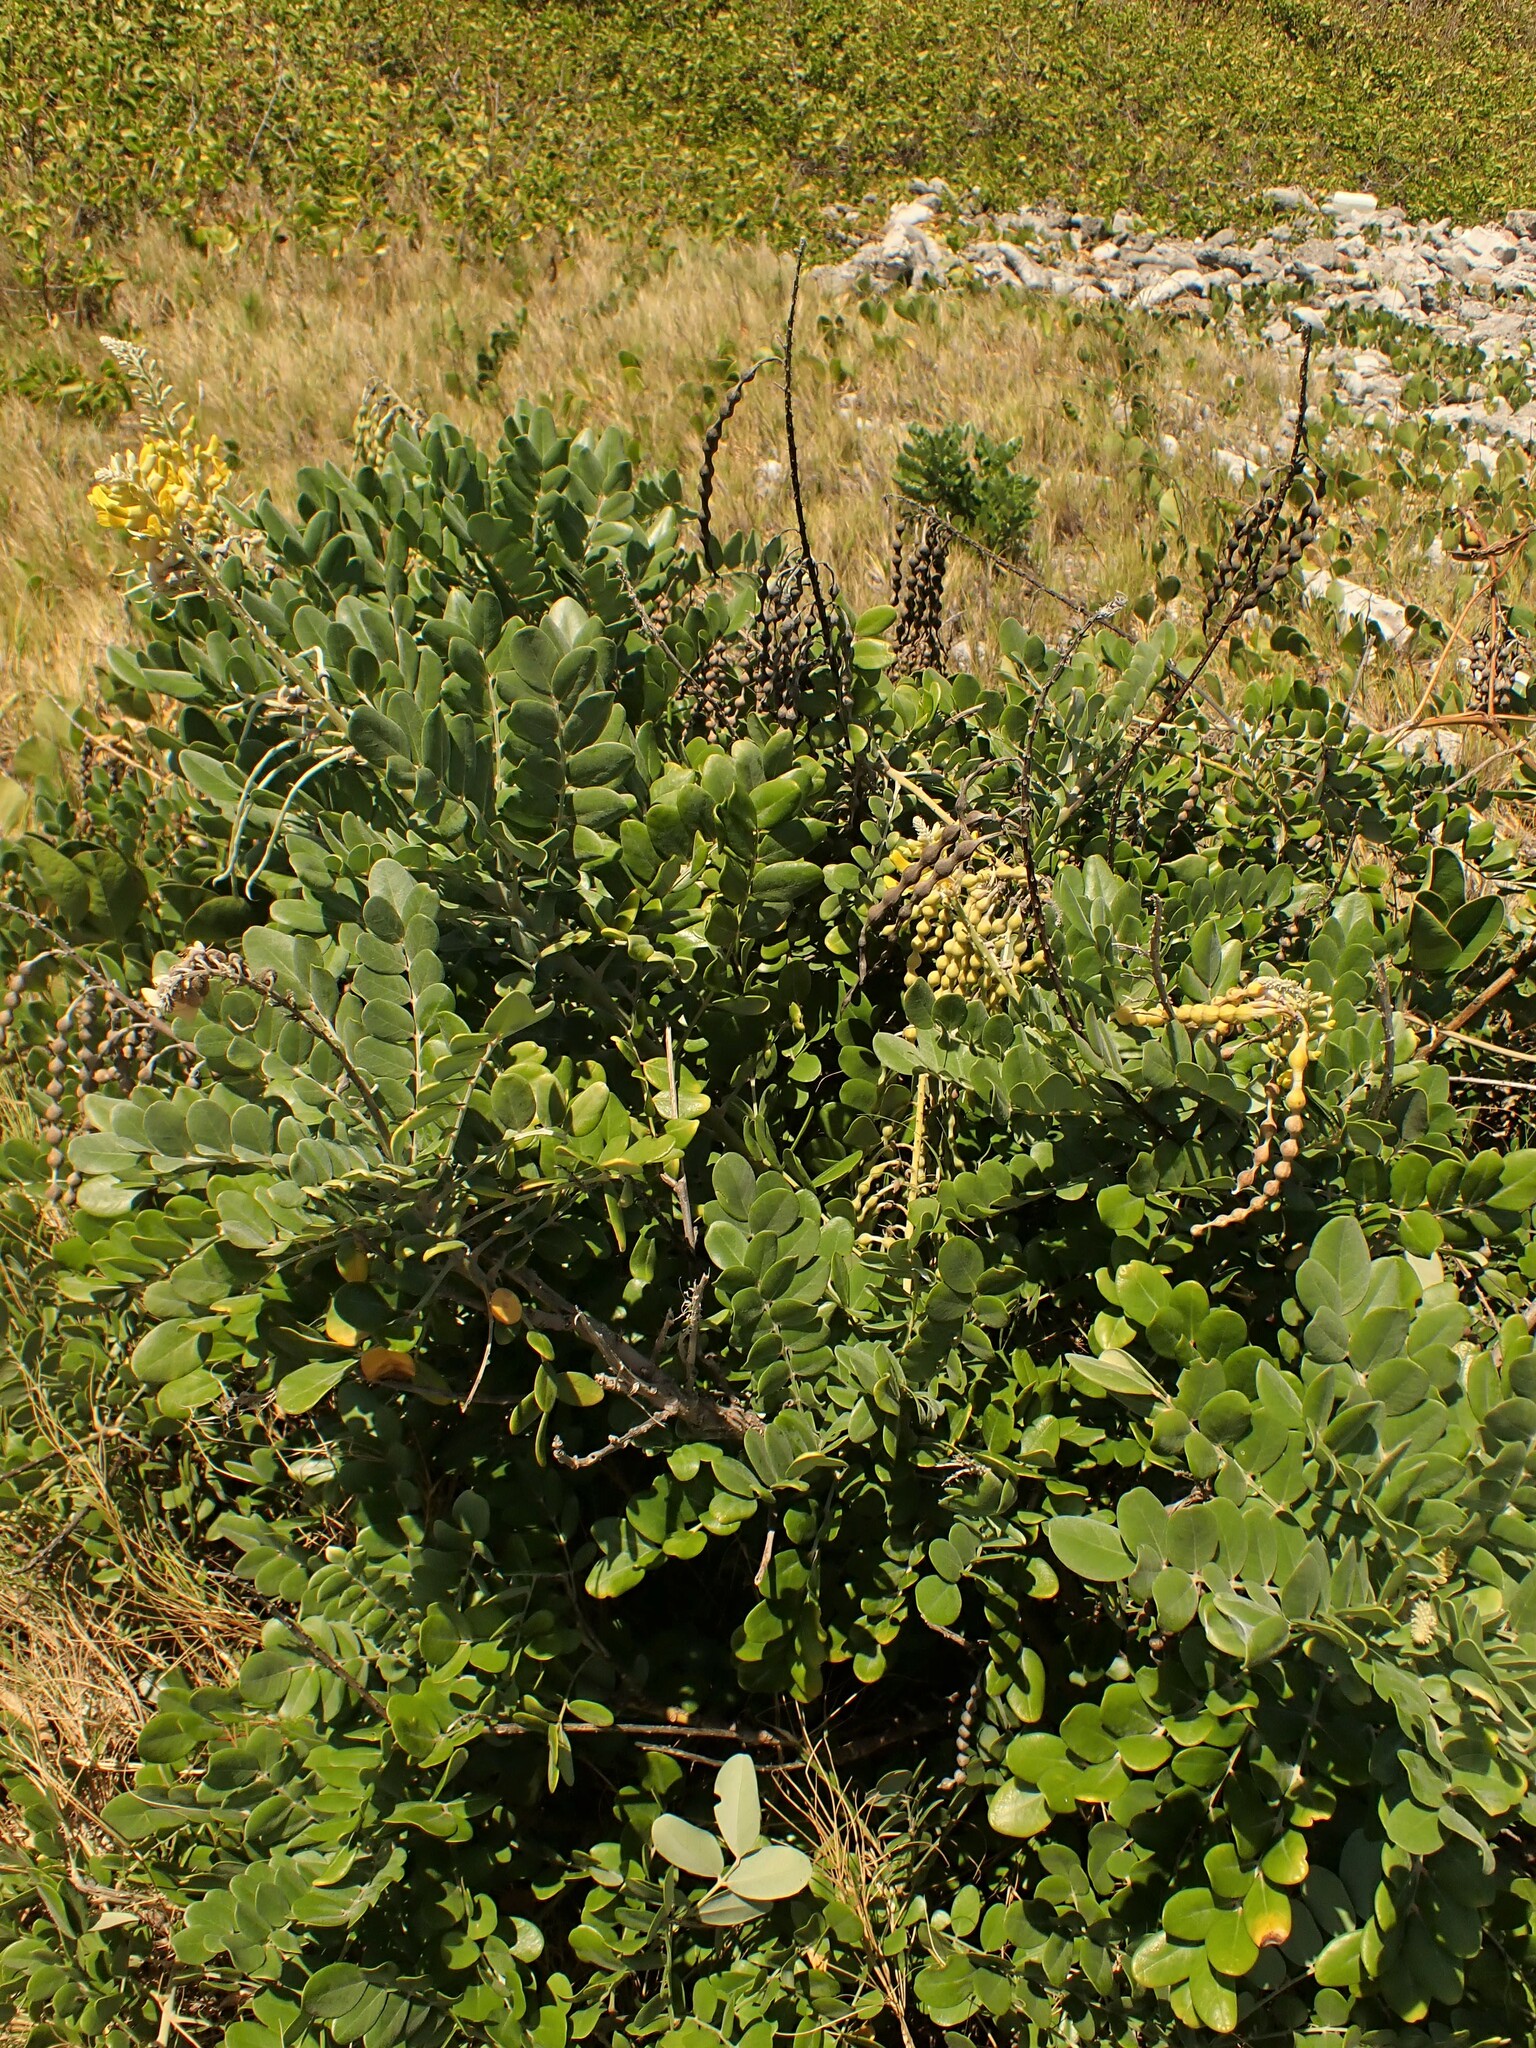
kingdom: Plantae
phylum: Tracheophyta
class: Magnoliopsida
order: Fabales
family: Fabaceae
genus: Sophora
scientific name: Sophora tomentosa
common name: Yellow necklacepod
